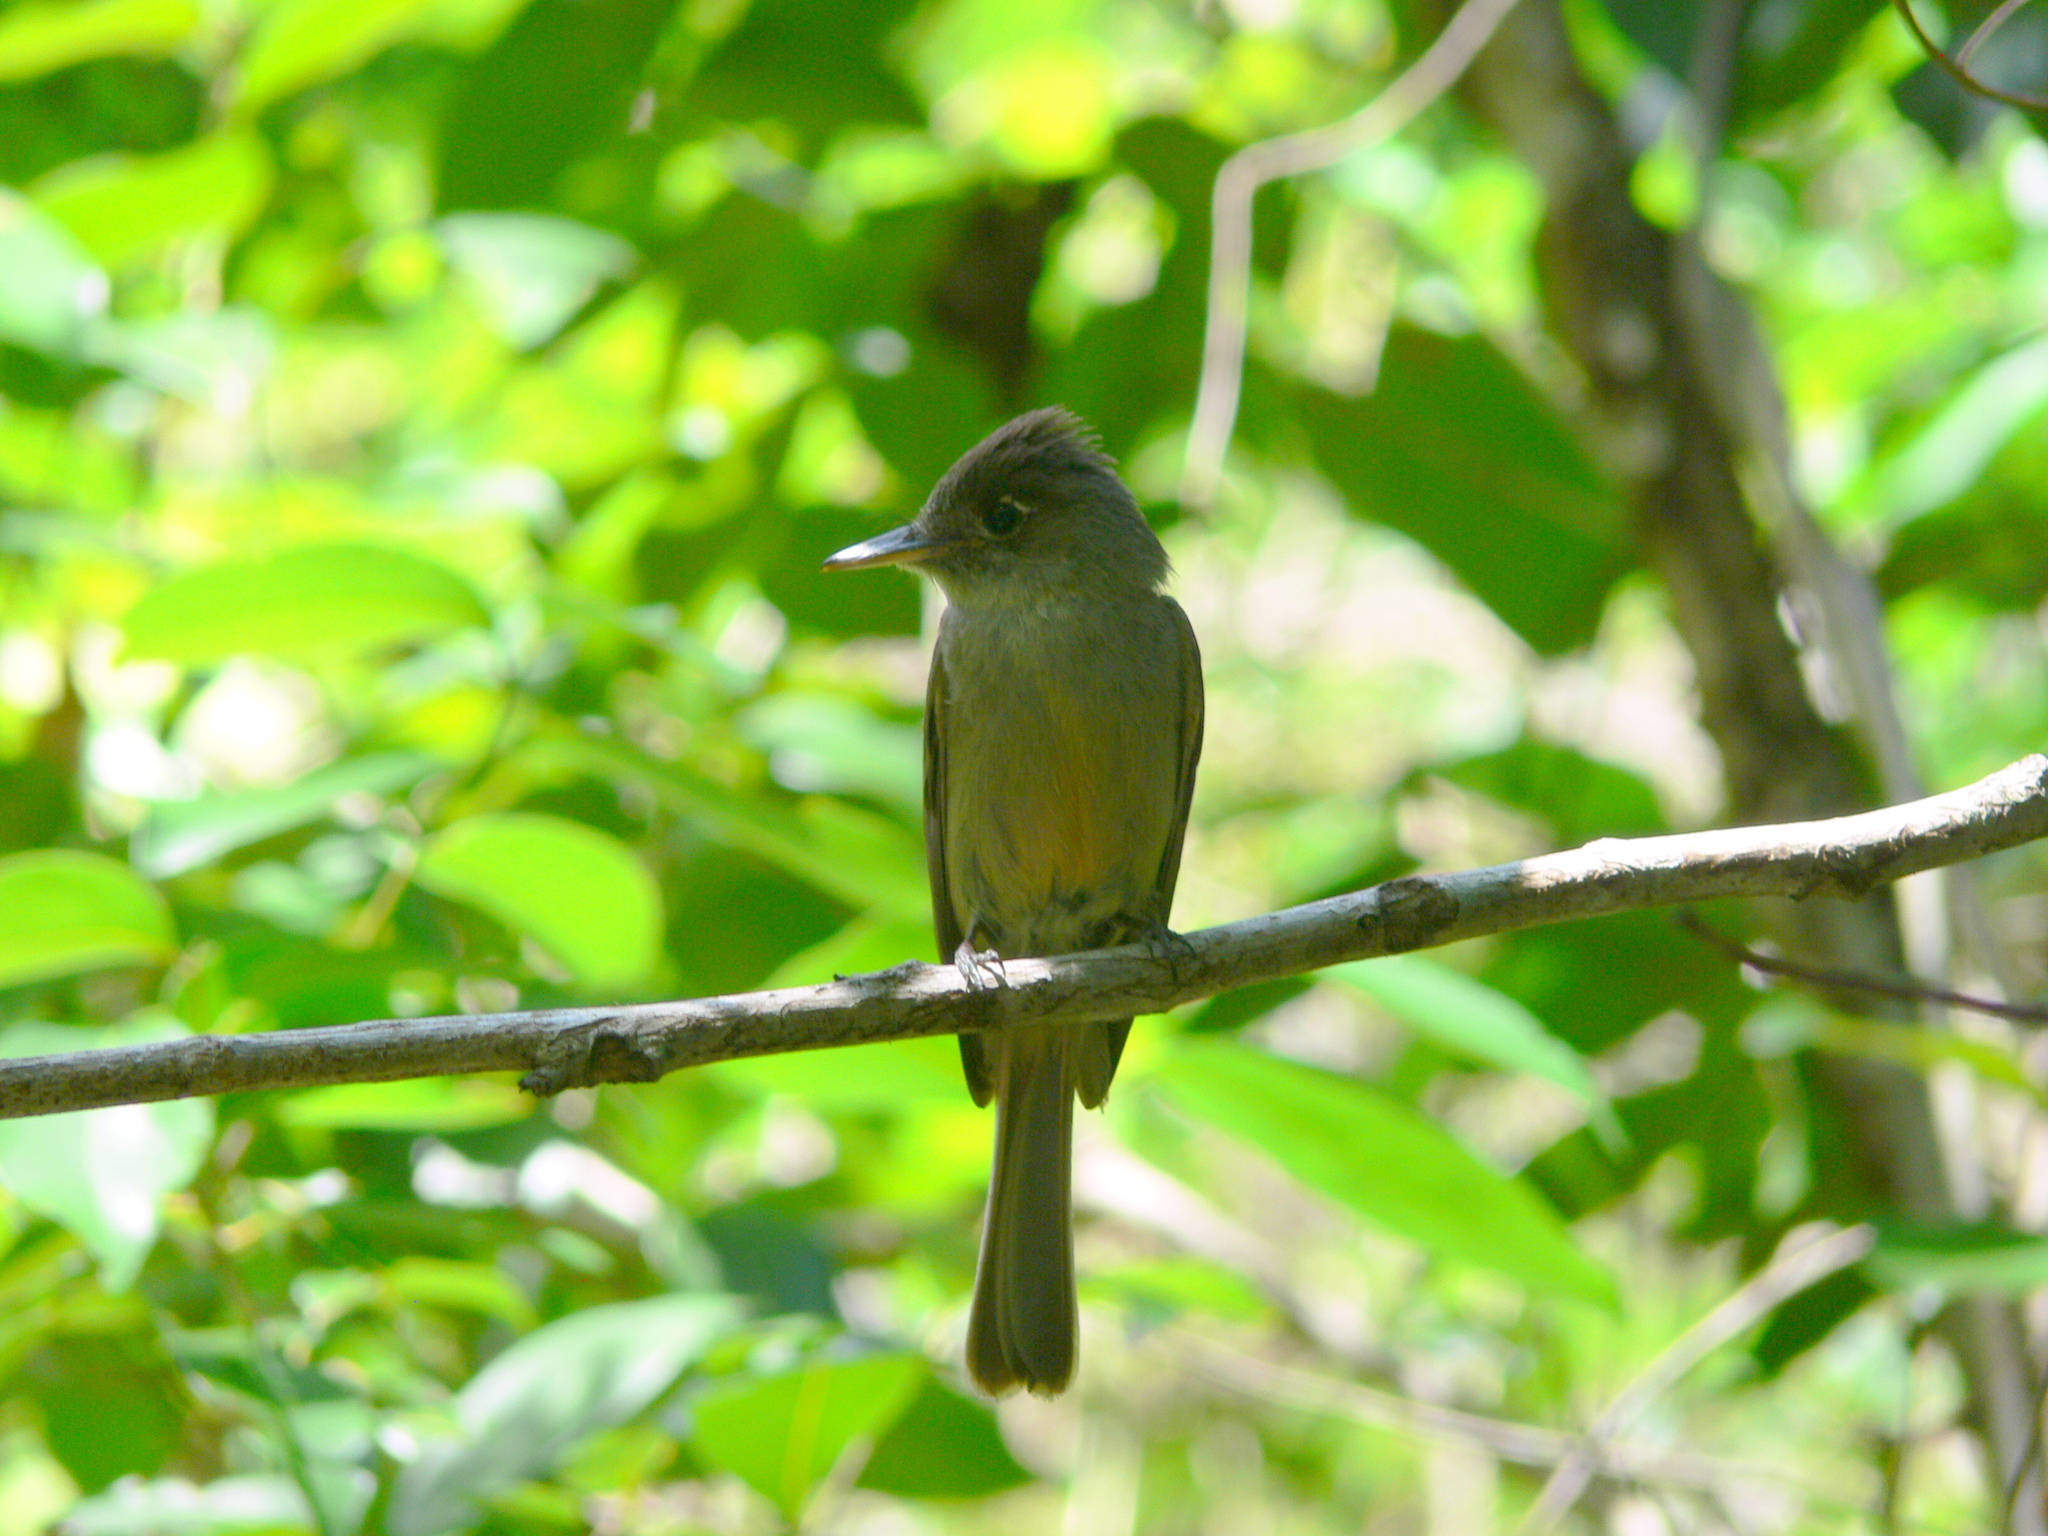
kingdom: Animalia
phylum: Chordata
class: Aves
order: Passeriformes
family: Tyrannidae
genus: Contopus
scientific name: Contopus caribaeus
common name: Cuban pewee
